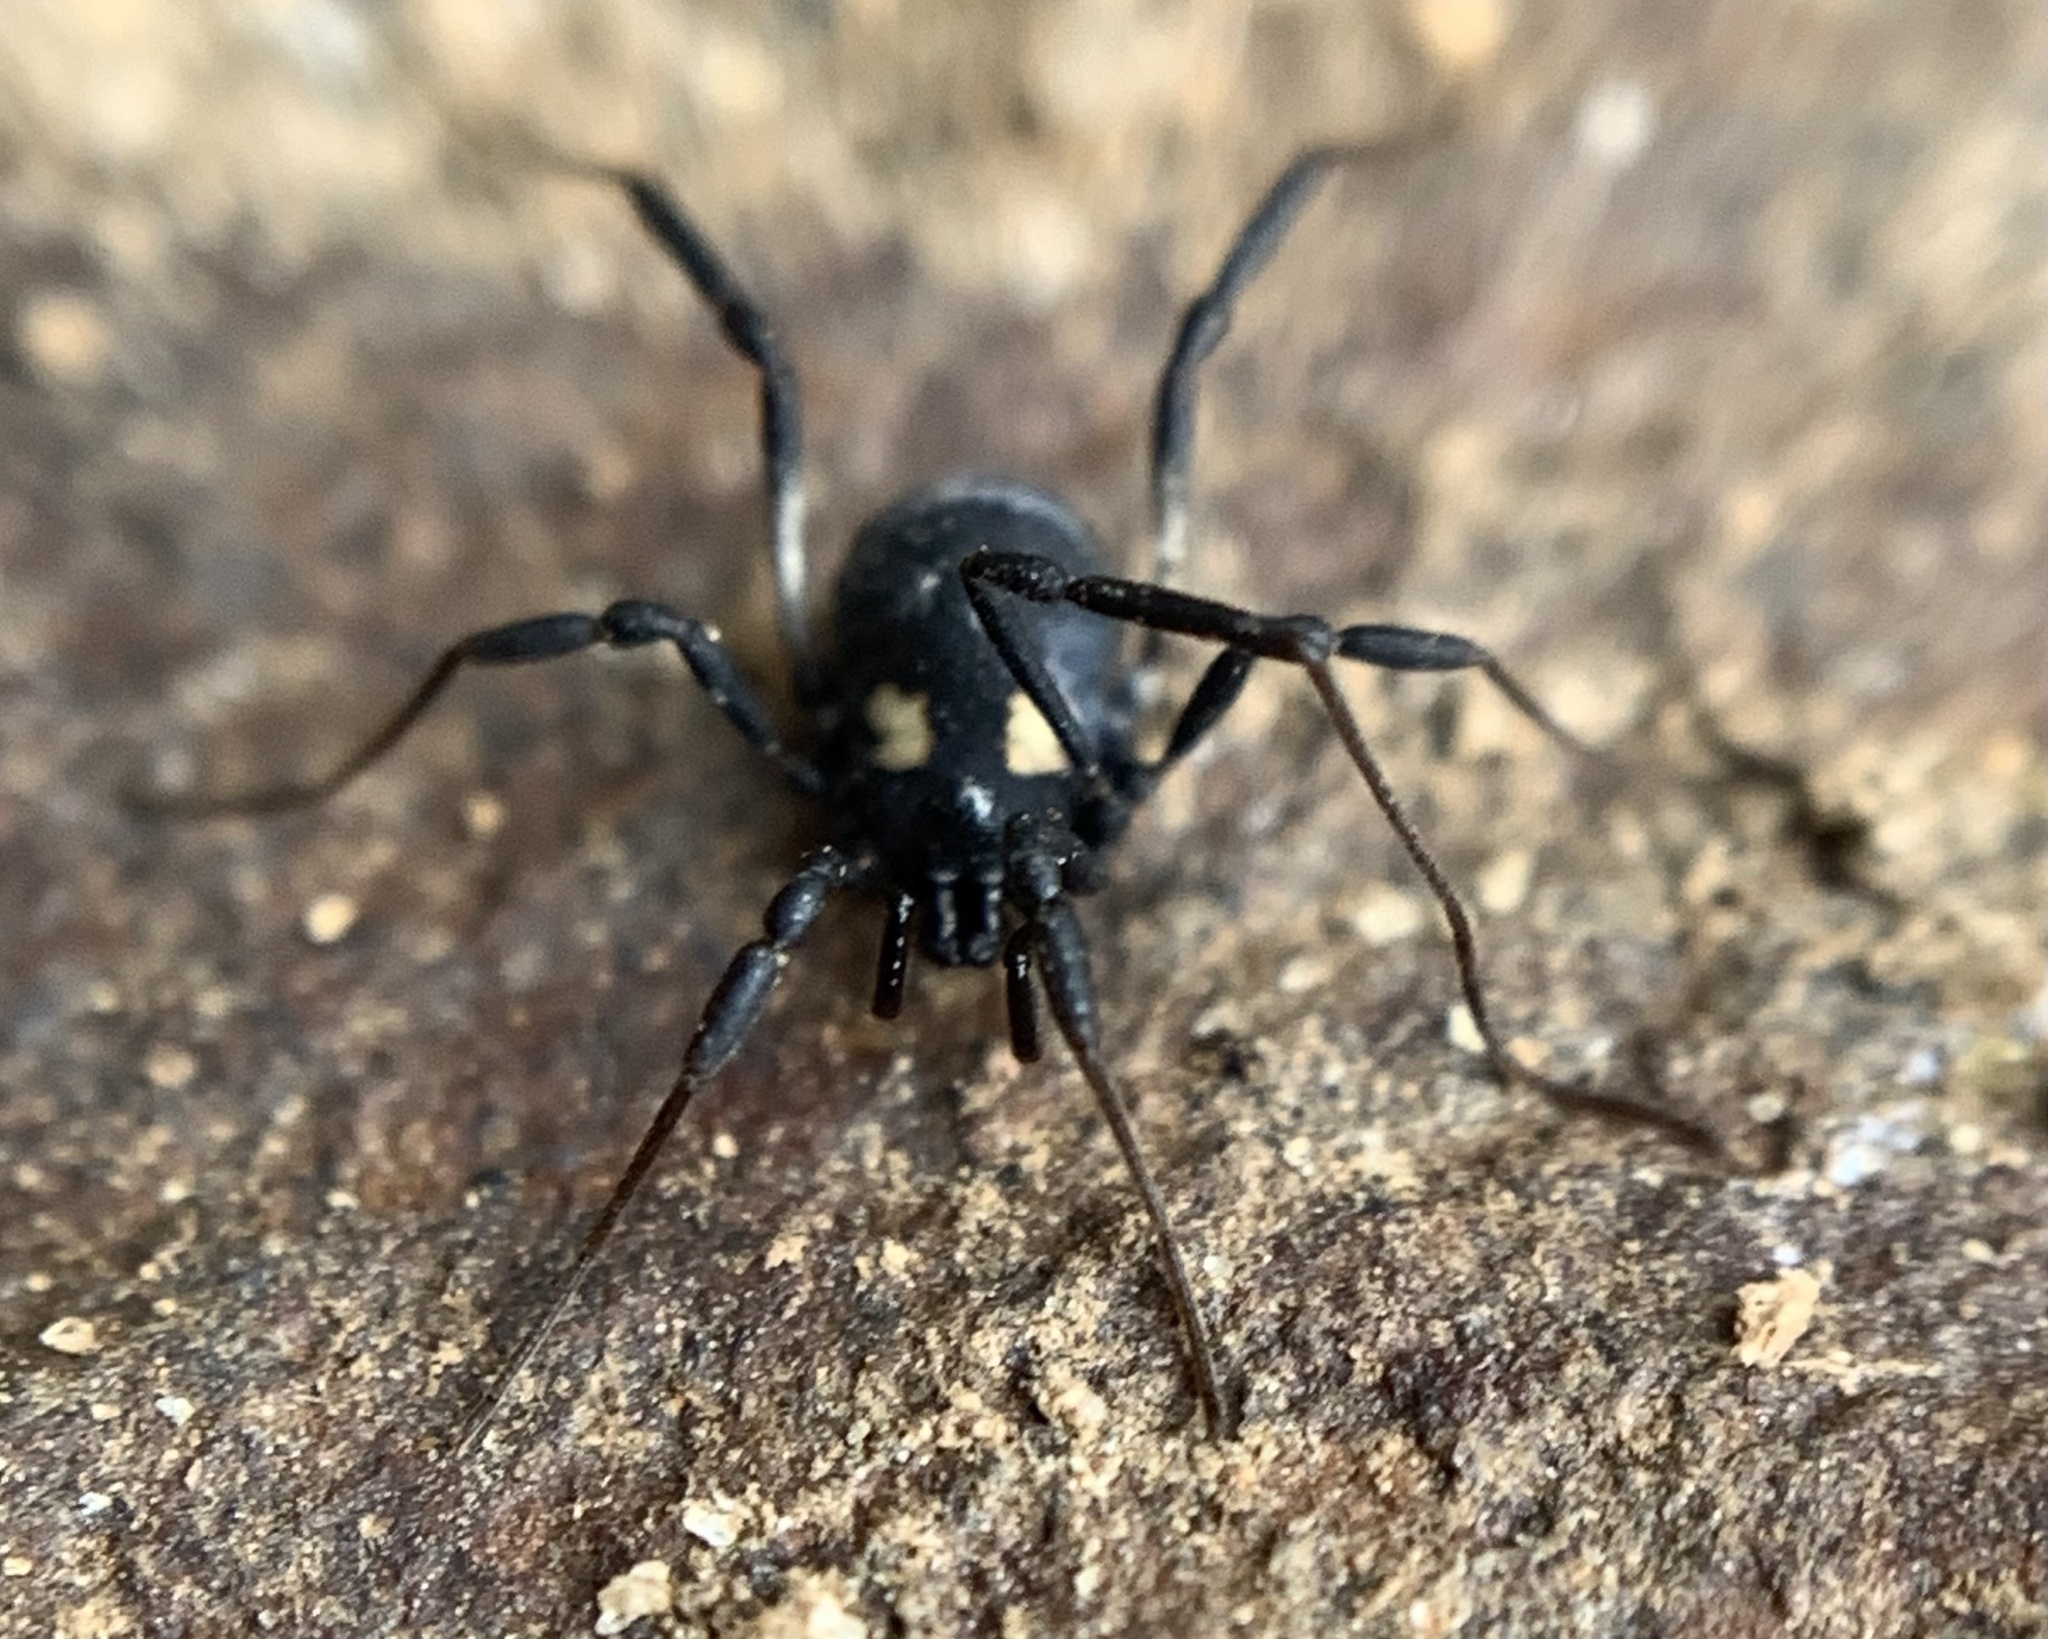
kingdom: Animalia
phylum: Arthropoda
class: Arachnida
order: Opiliones
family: Nemastomatidae
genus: Nemastoma
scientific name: Nemastoma bimaculatum
